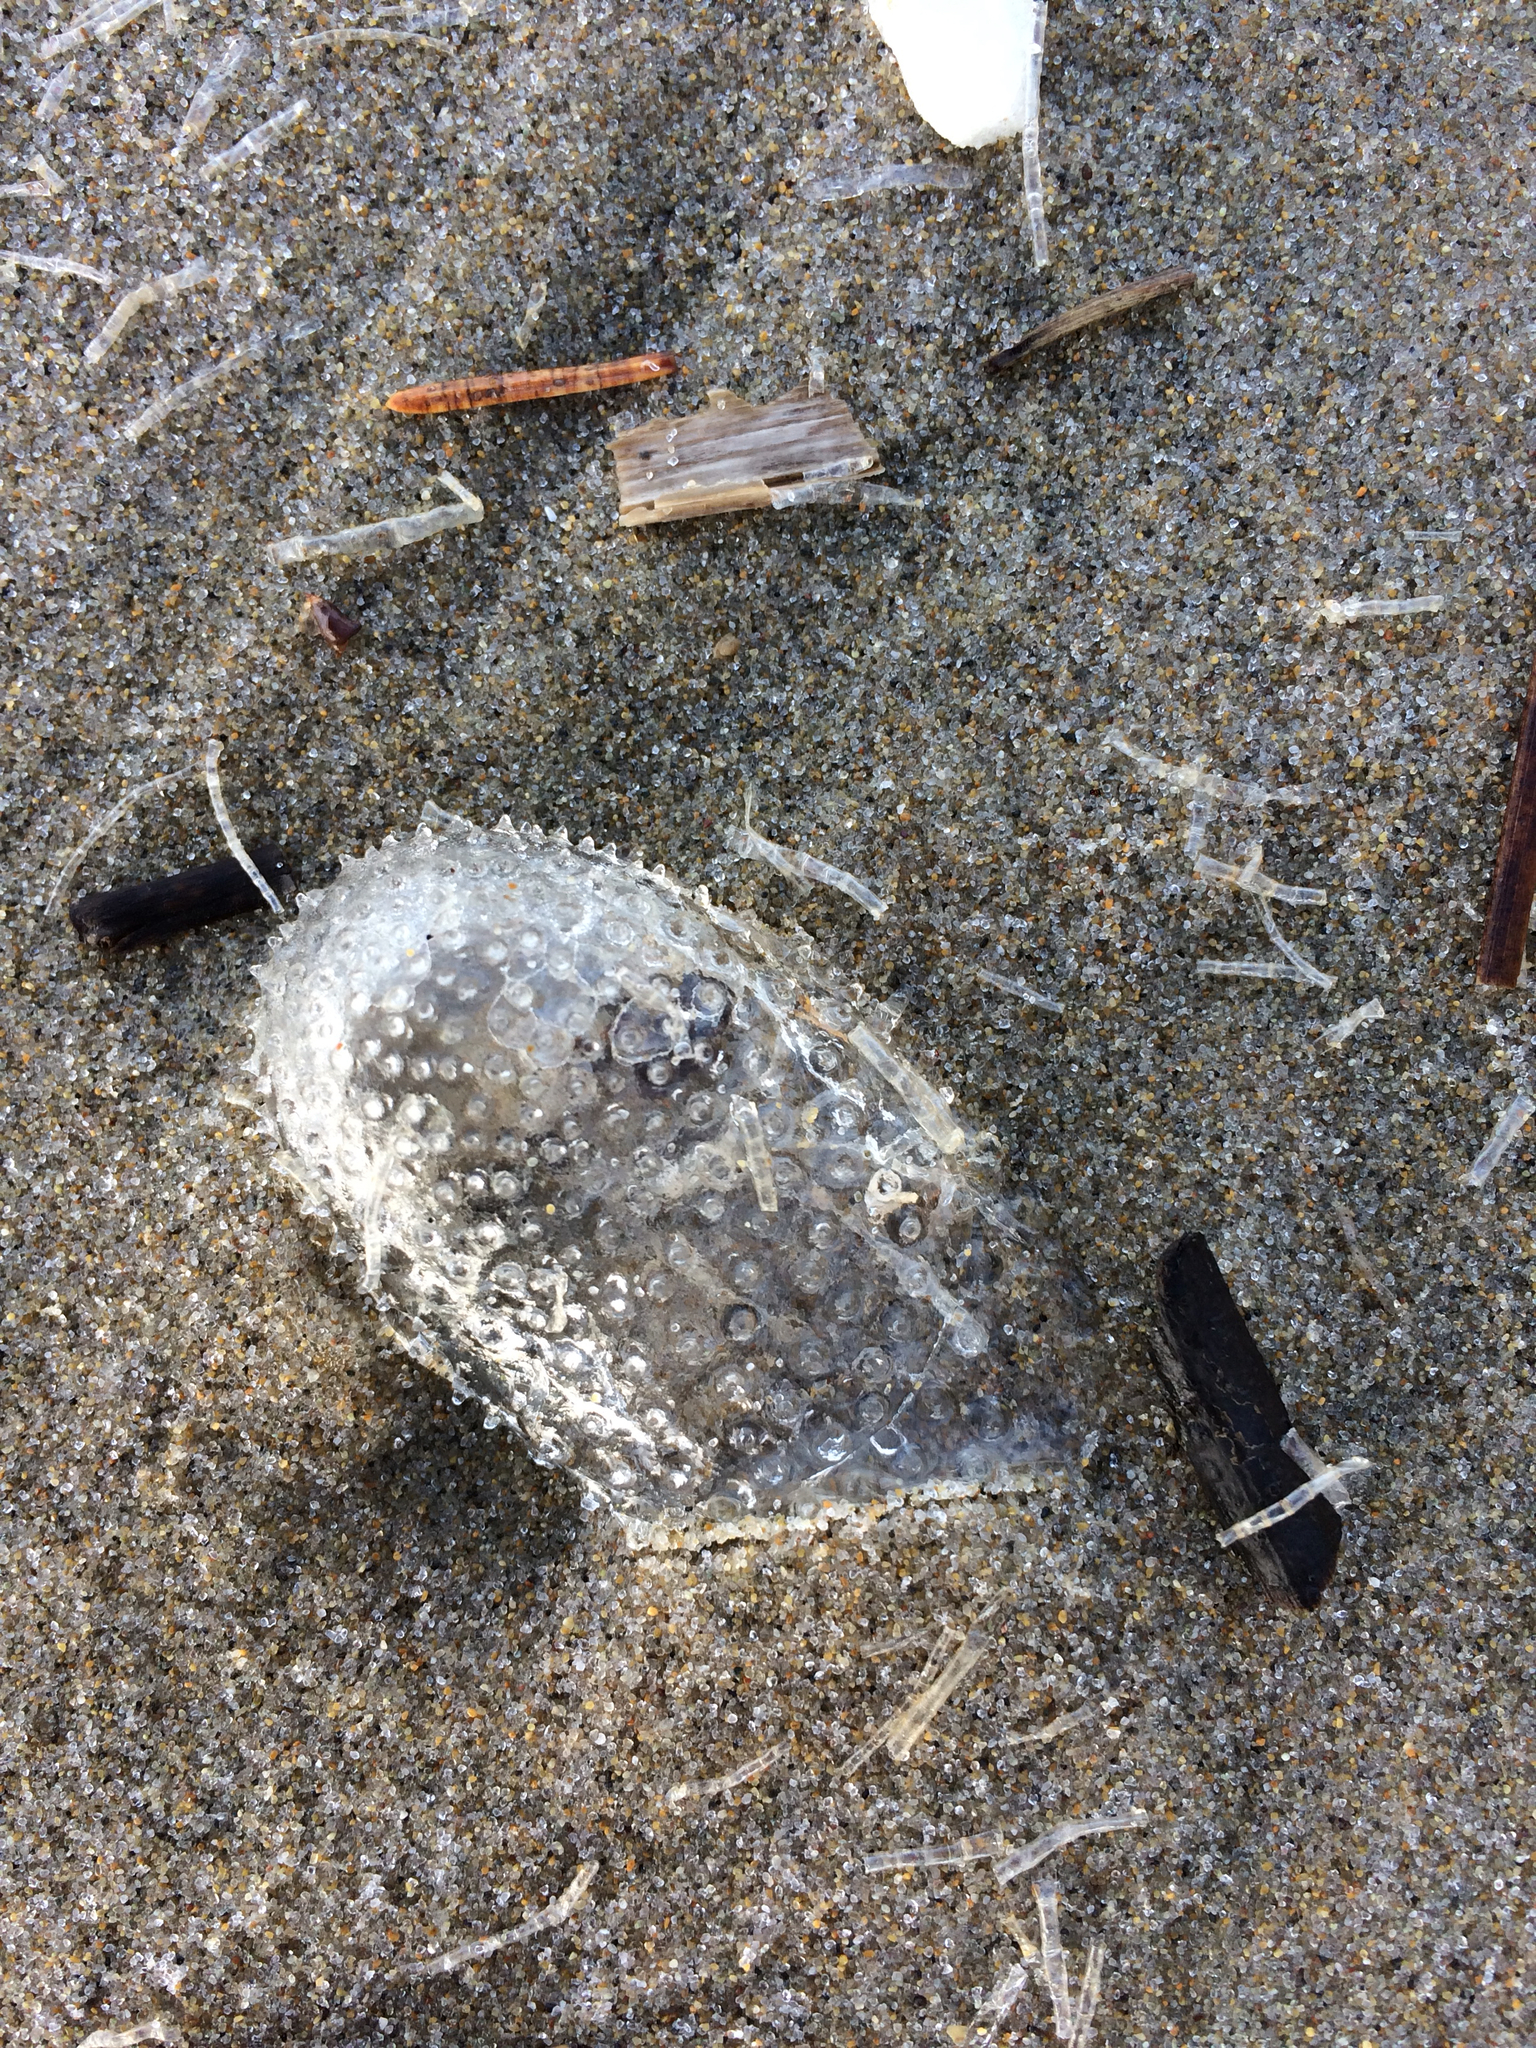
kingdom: Animalia
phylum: Mollusca
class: Gastropoda
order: Pteropoda
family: Cymbuliidae
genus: Corolla
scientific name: Corolla spectabilis
